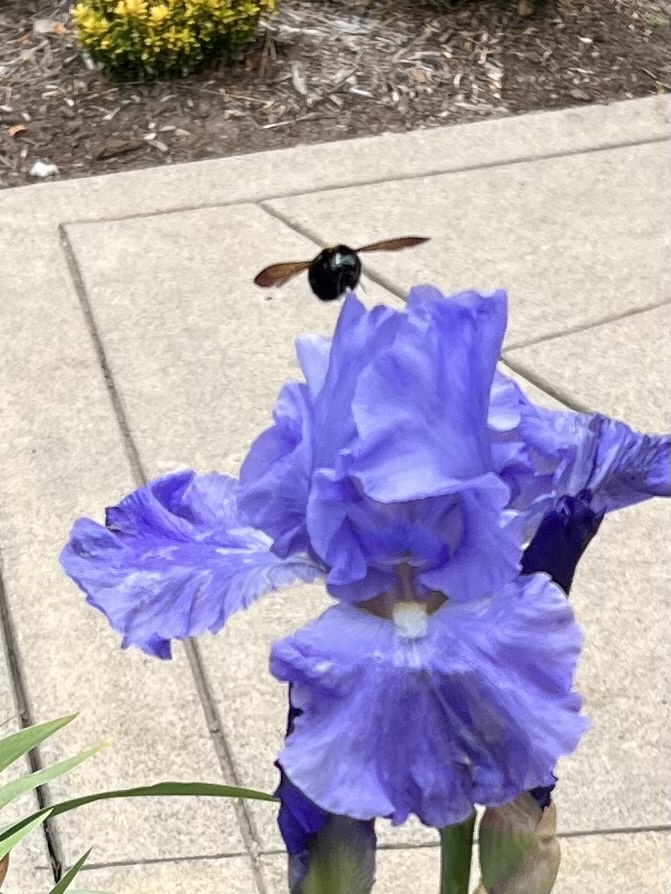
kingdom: Animalia
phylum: Arthropoda
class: Insecta
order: Hymenoptera
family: Apidae
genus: Xylocopa
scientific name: Xylocopa sonorina
